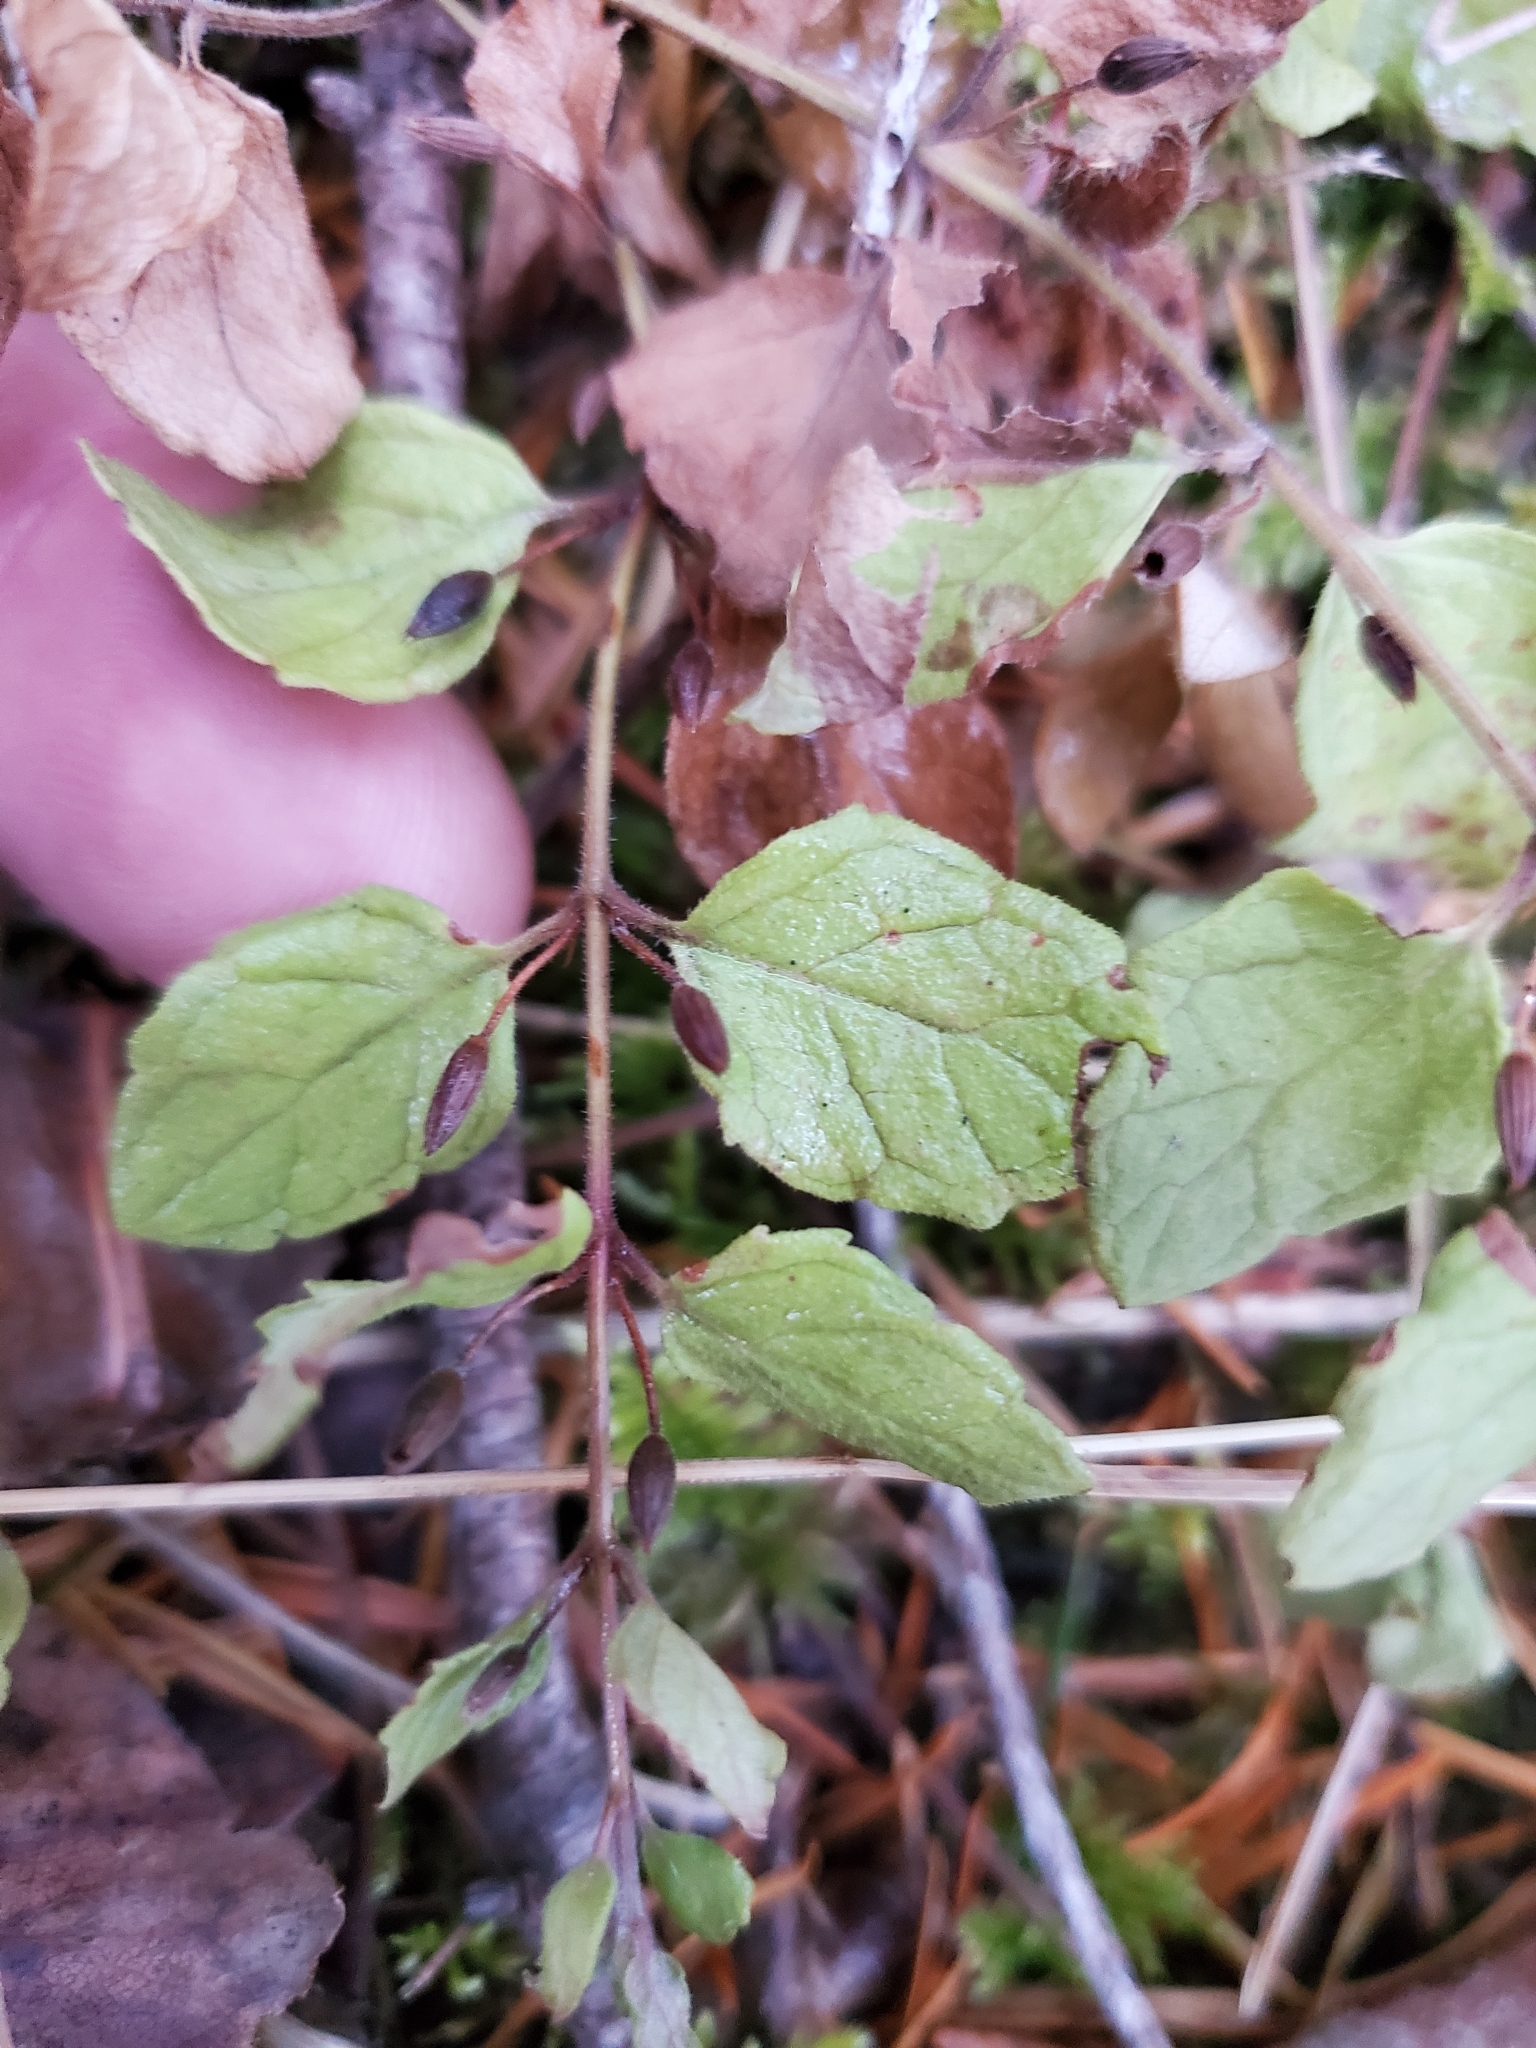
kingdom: Plantae
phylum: Tracheophyta
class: Magnoliopsida
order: Lamiales
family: Lamiaceae
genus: Micromeria
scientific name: Micromeria douglasii
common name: Yerba buena
